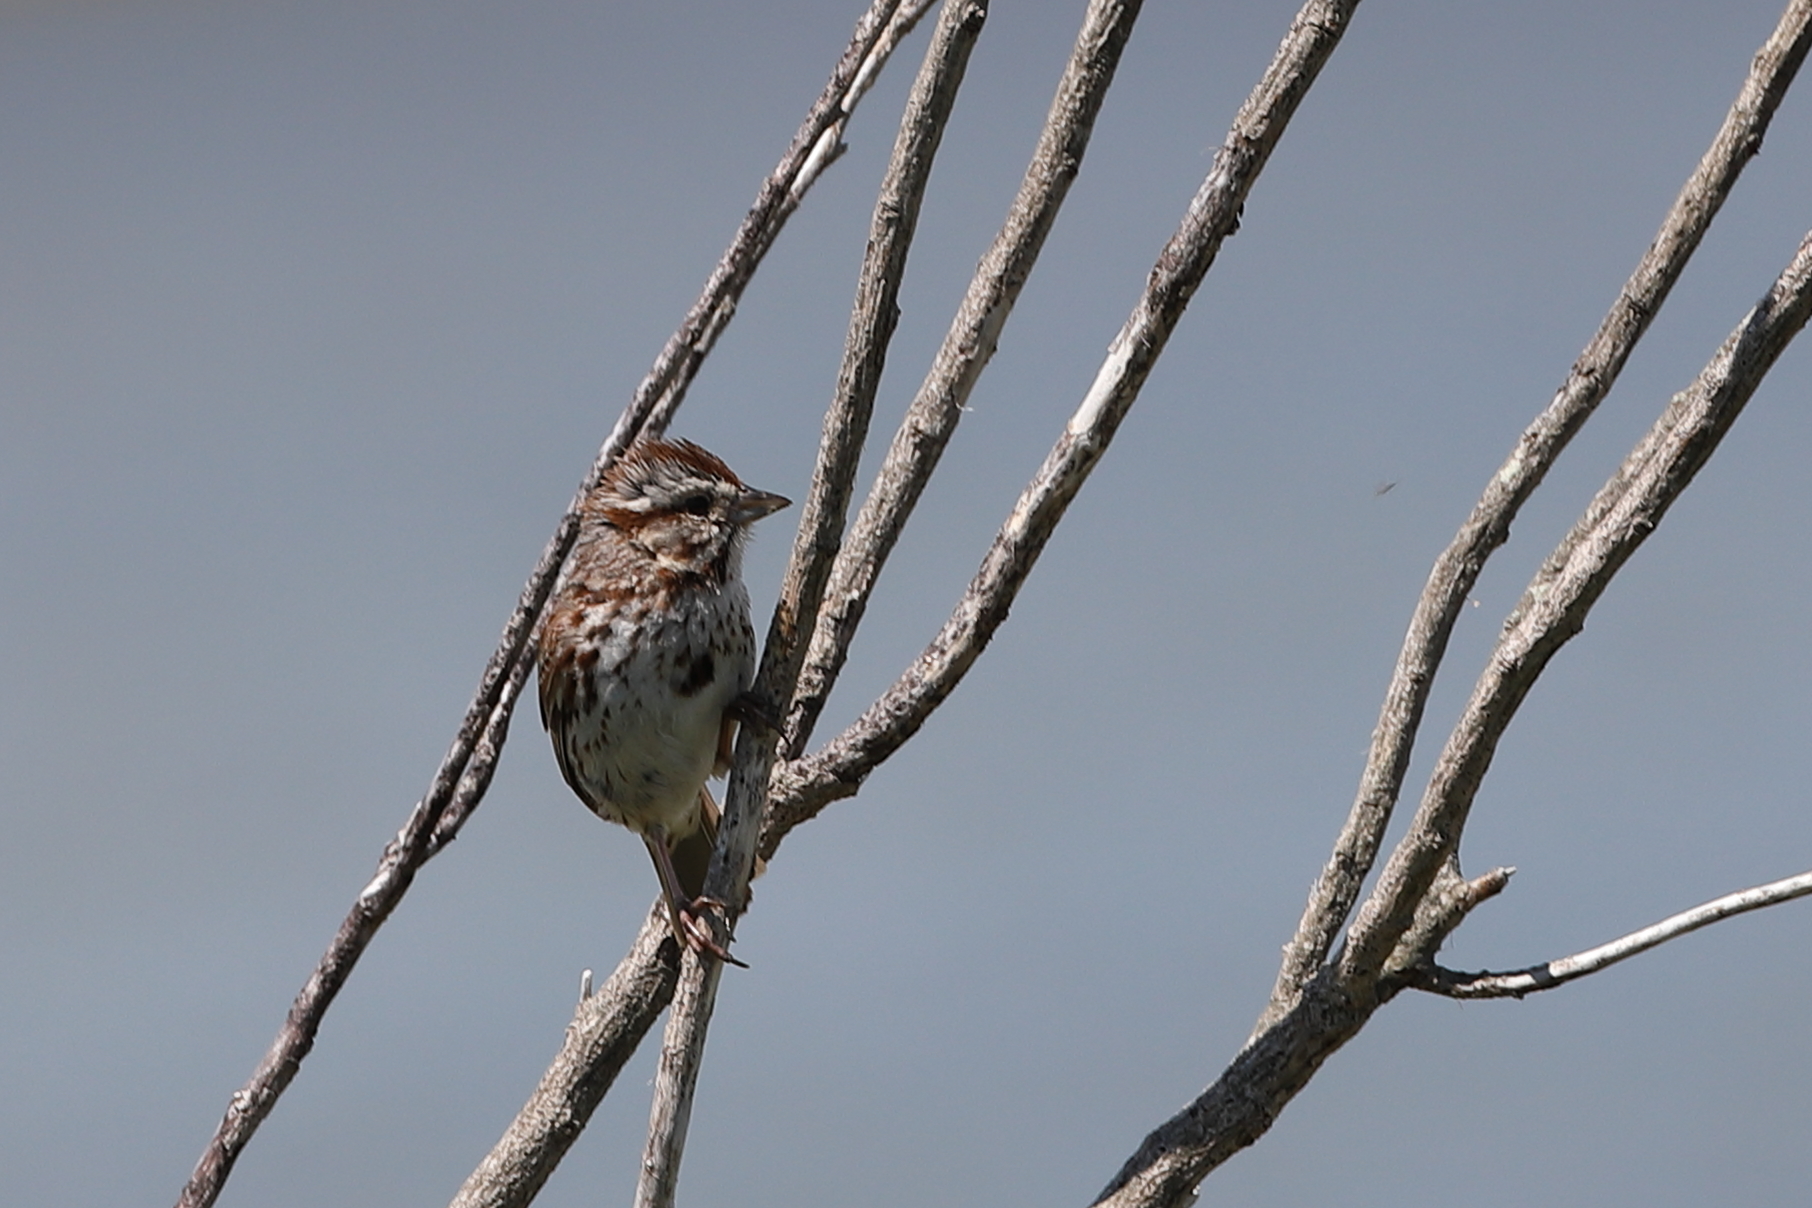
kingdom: Animalia
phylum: Chordata
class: Aves
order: Passeriformes
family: Passerellidae
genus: Melospiza
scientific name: Melospiza melodia
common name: Song sparrow
